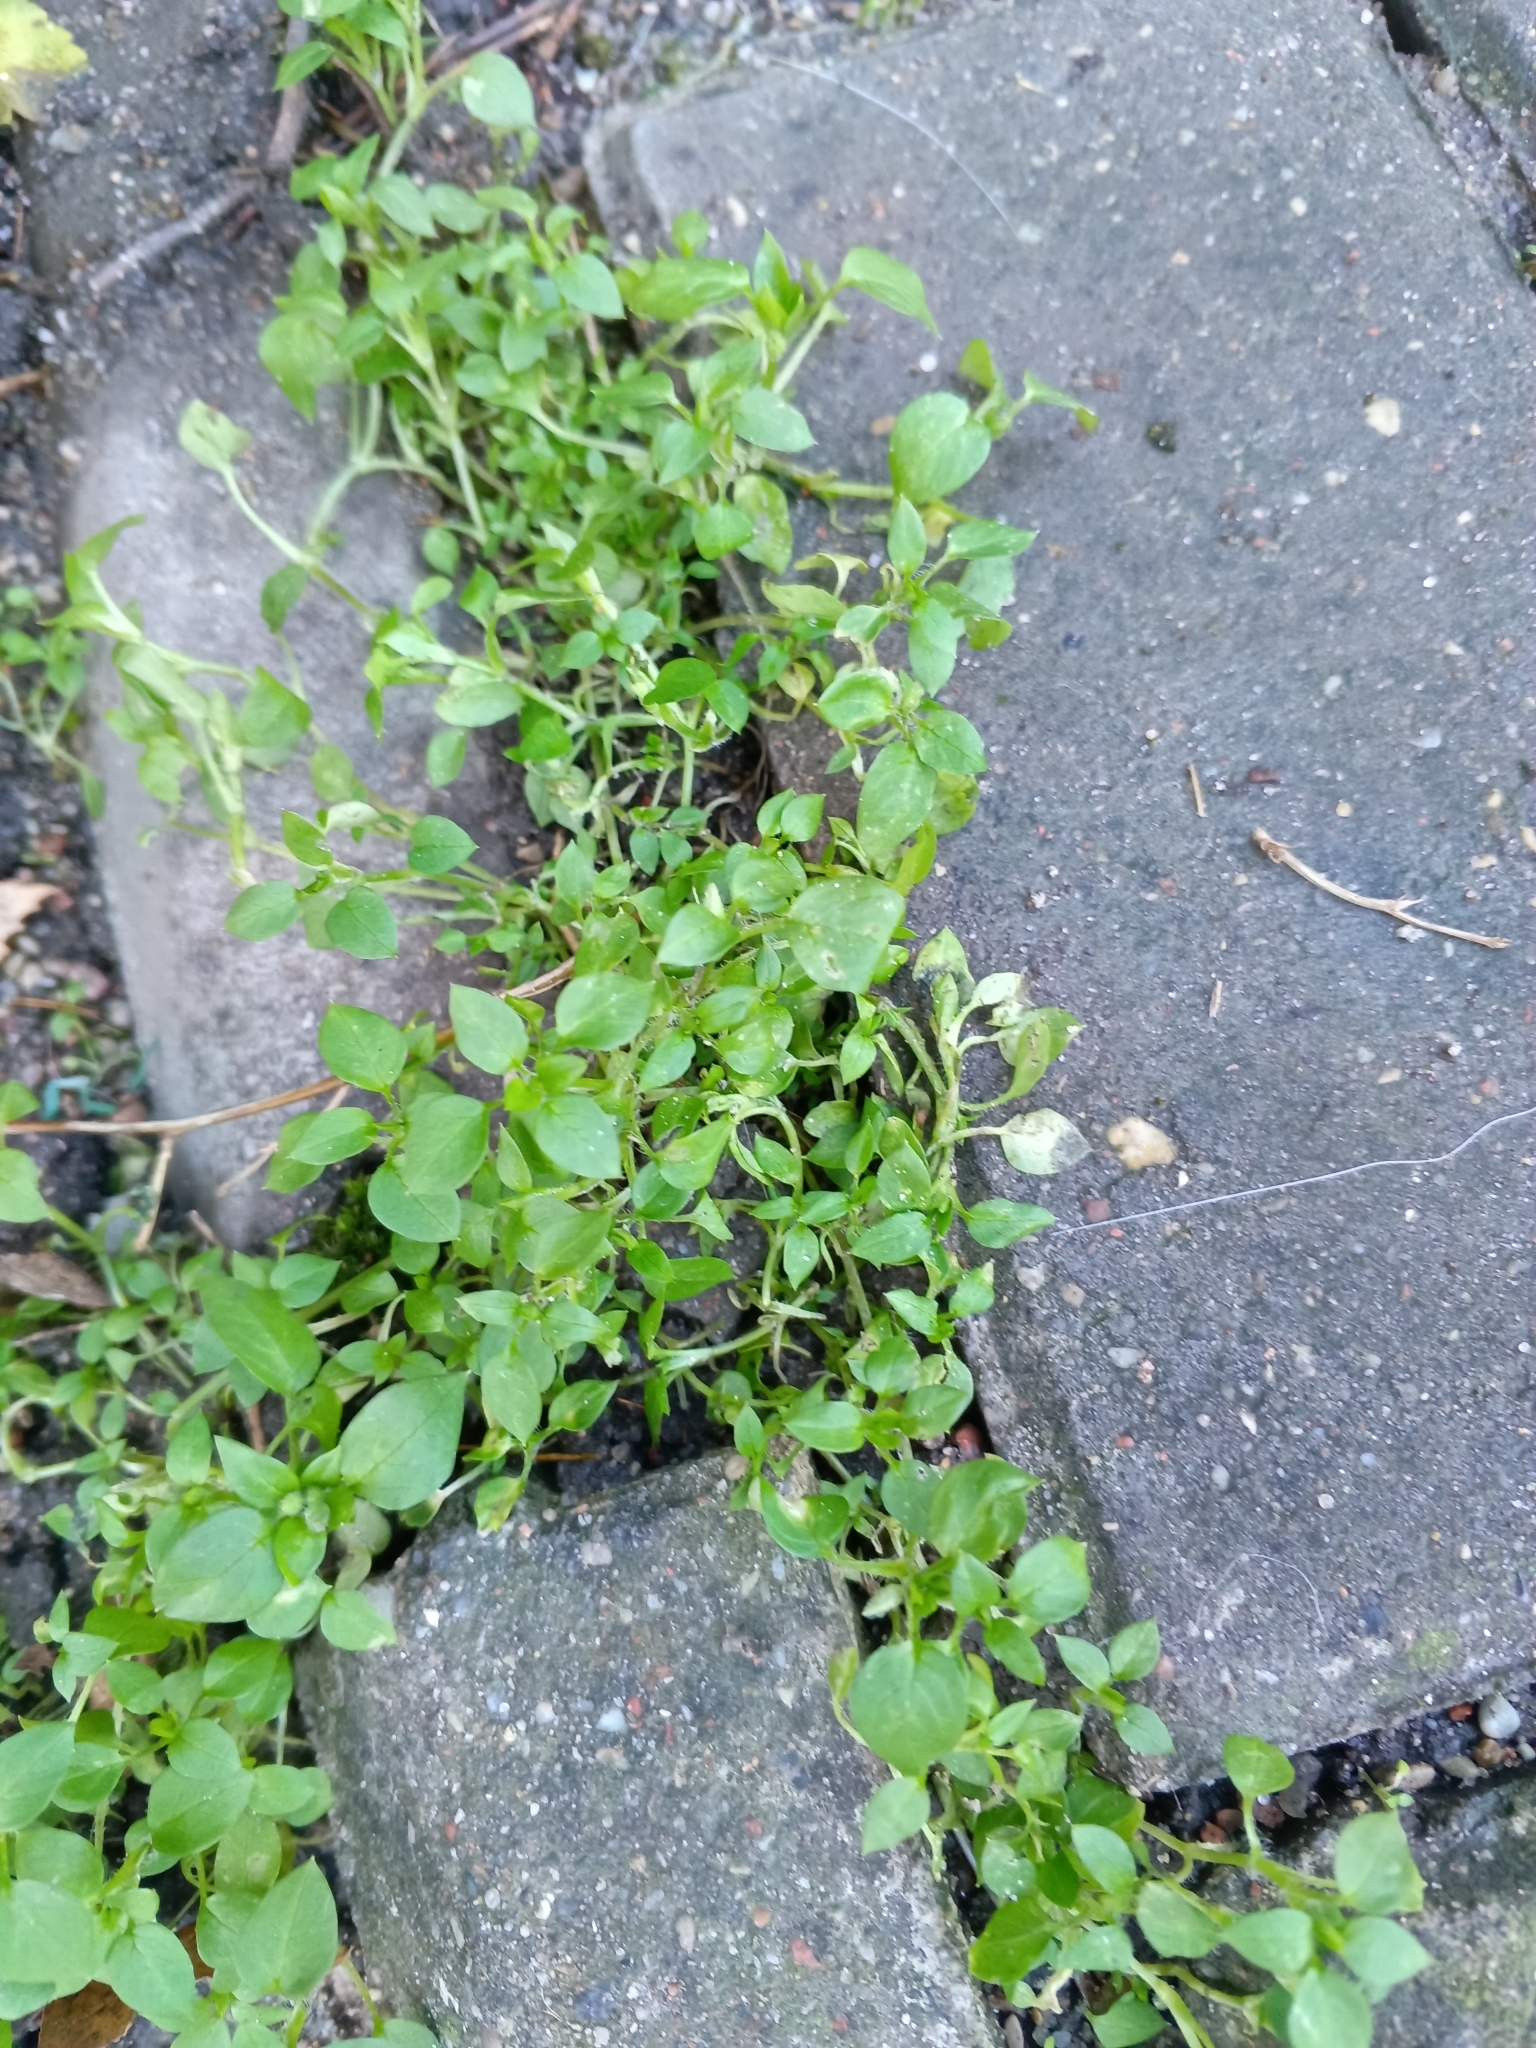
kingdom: Plantae
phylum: Tracheophyta
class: Magnoliopsida
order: Caryophyllales
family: Caryophyllaceae
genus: Stellaria
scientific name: Stellaria media
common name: Common chickweed
